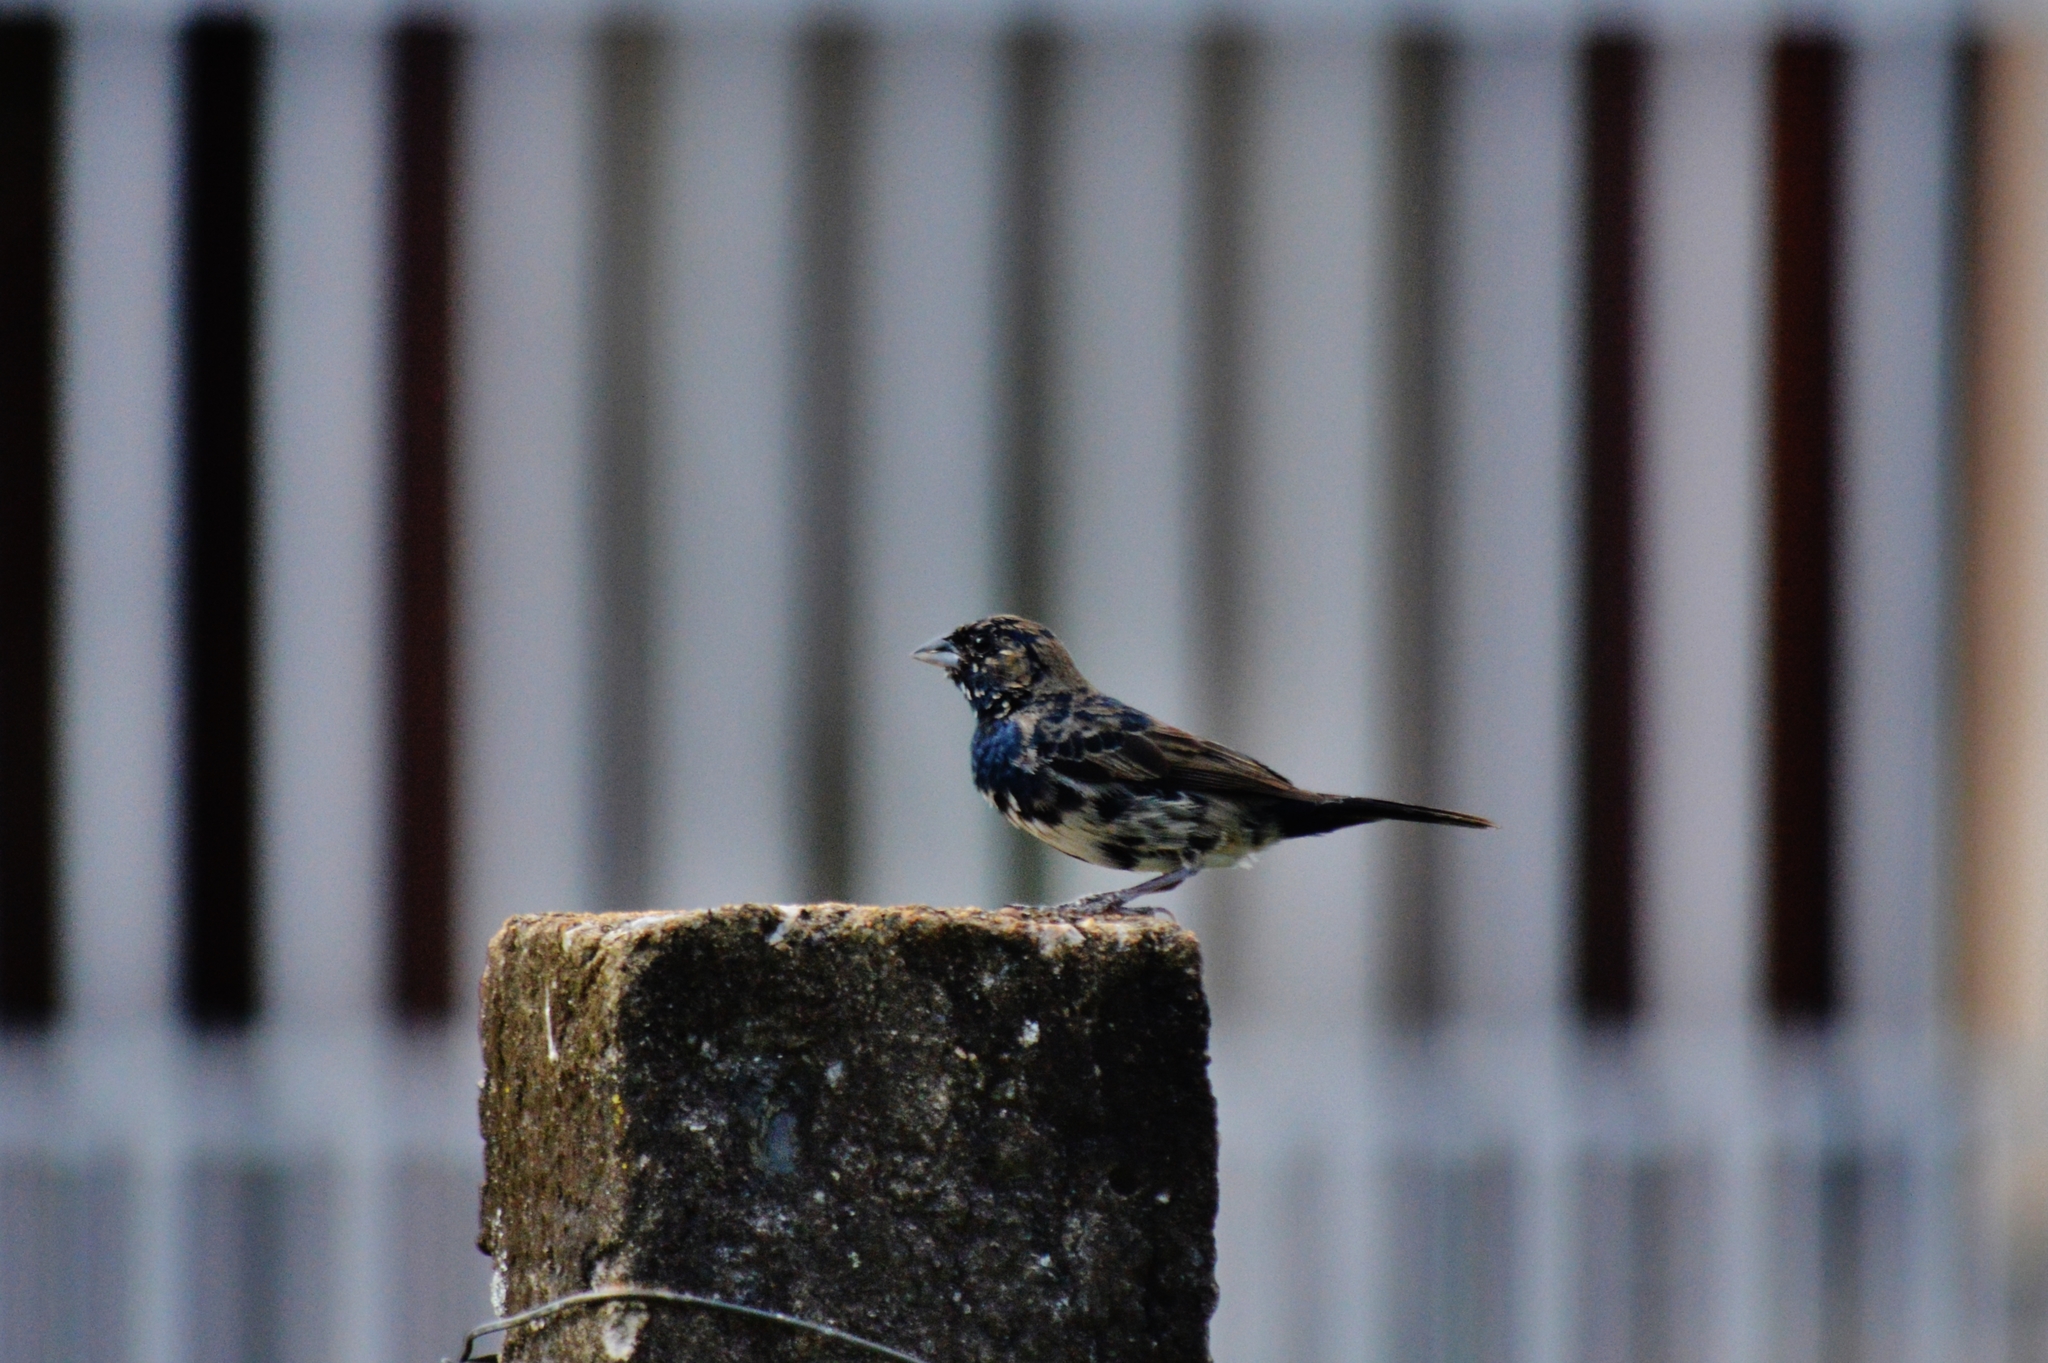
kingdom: Animalia
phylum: Chordata
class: Aves
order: Passeriformes
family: Thraupidae
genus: Volatinia
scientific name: Volatinia jacarina
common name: Blue-black grassquit
